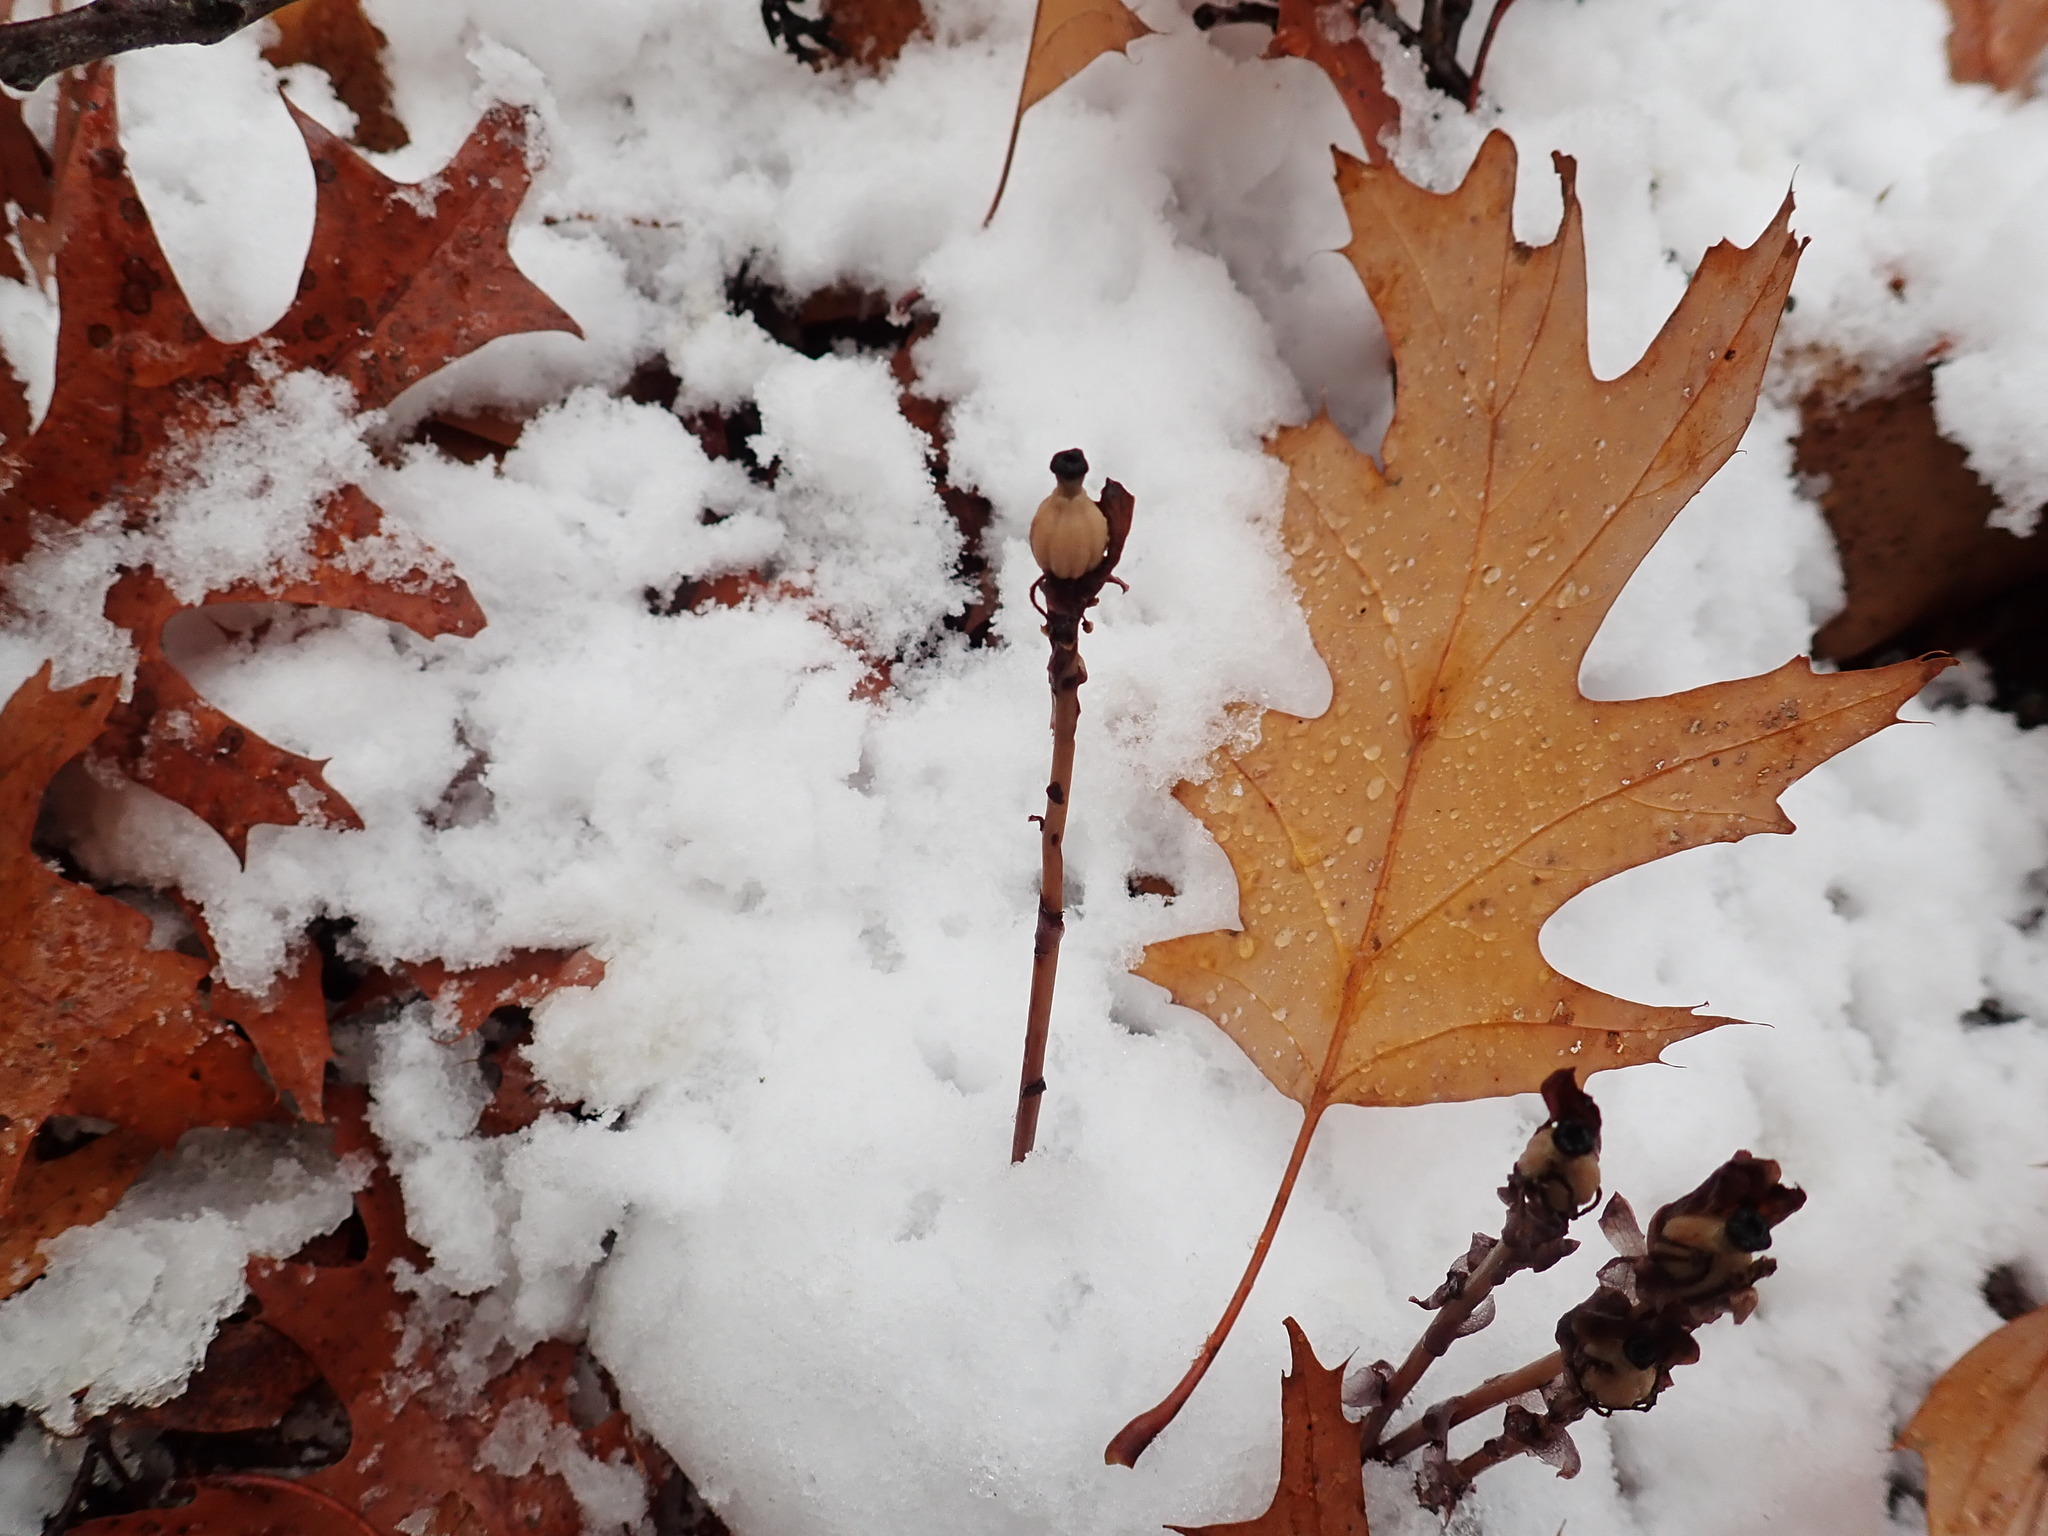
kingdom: Plantae
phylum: Tracheophyta
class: Magnoliopsida
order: Ericales
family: Ericaceae
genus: Monotropa
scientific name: Monotropa uniflora
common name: Convulsion root
